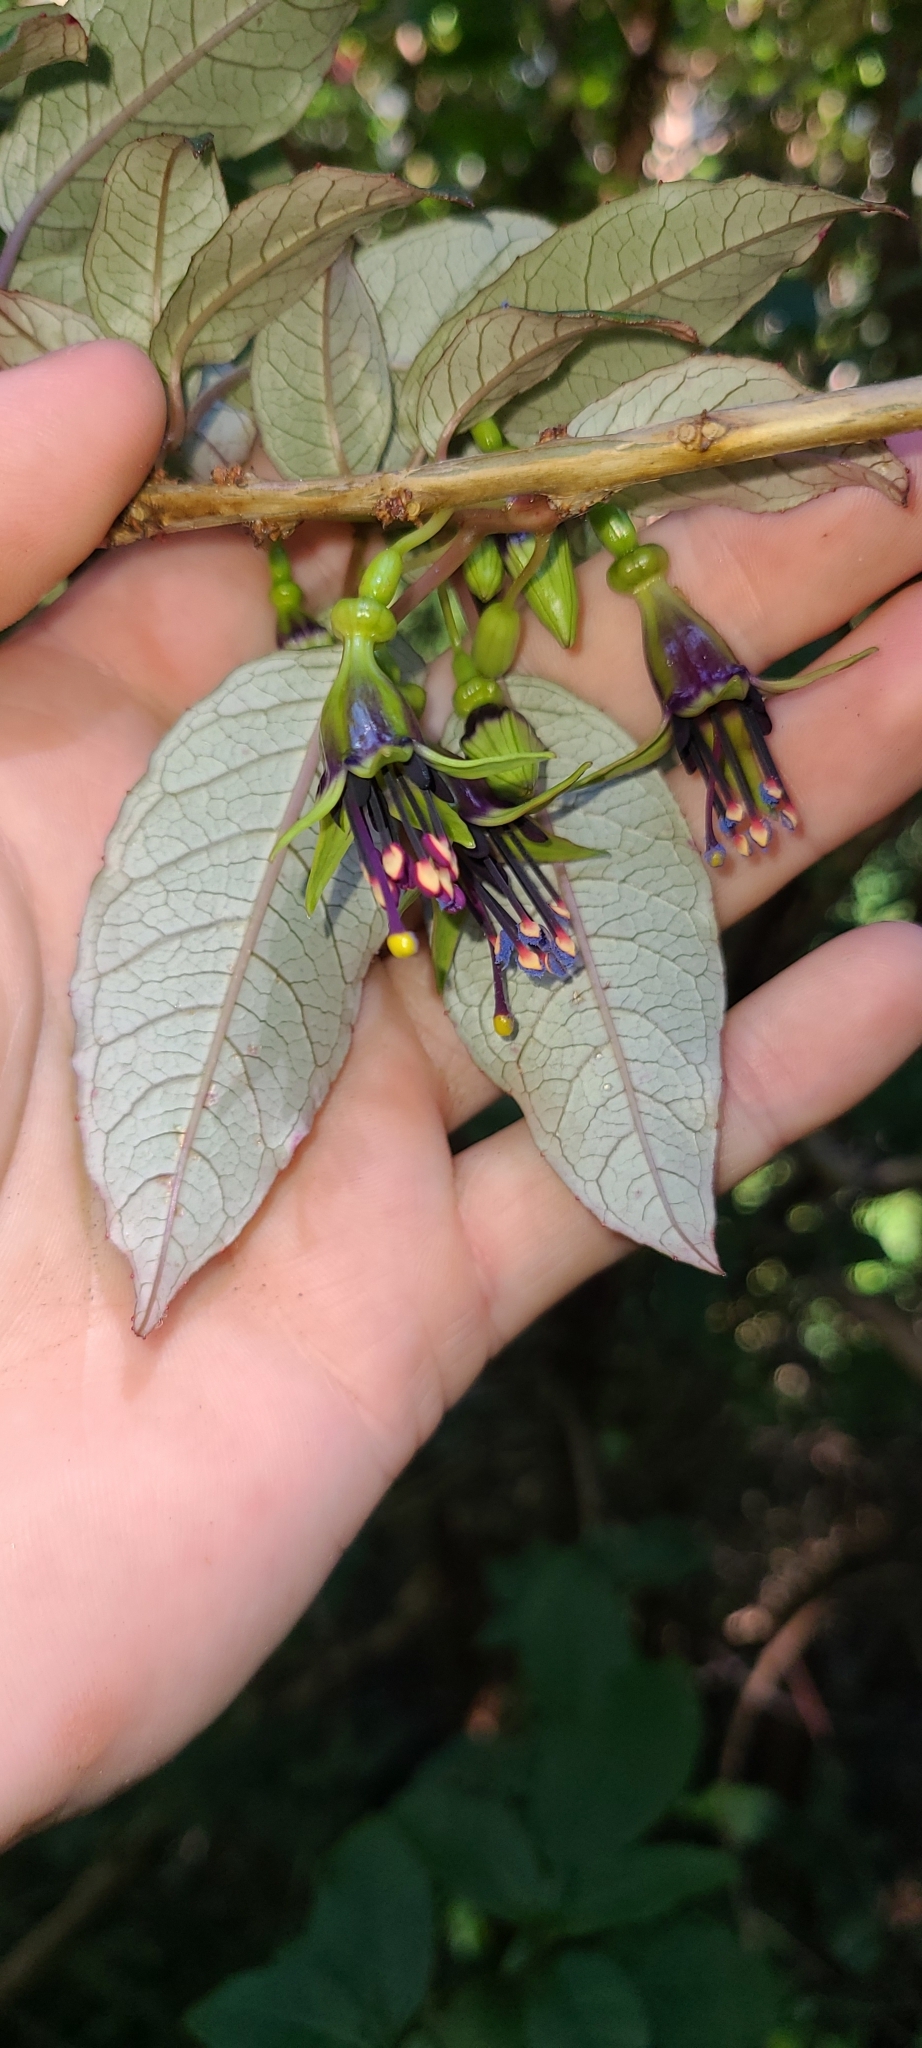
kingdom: Plantae
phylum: Tracheophyta
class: Magnoliopsida
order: Myrtales
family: Onagraceae
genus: Fuchsia
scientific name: Fuchsia excorticata
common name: Tree fuchsia
